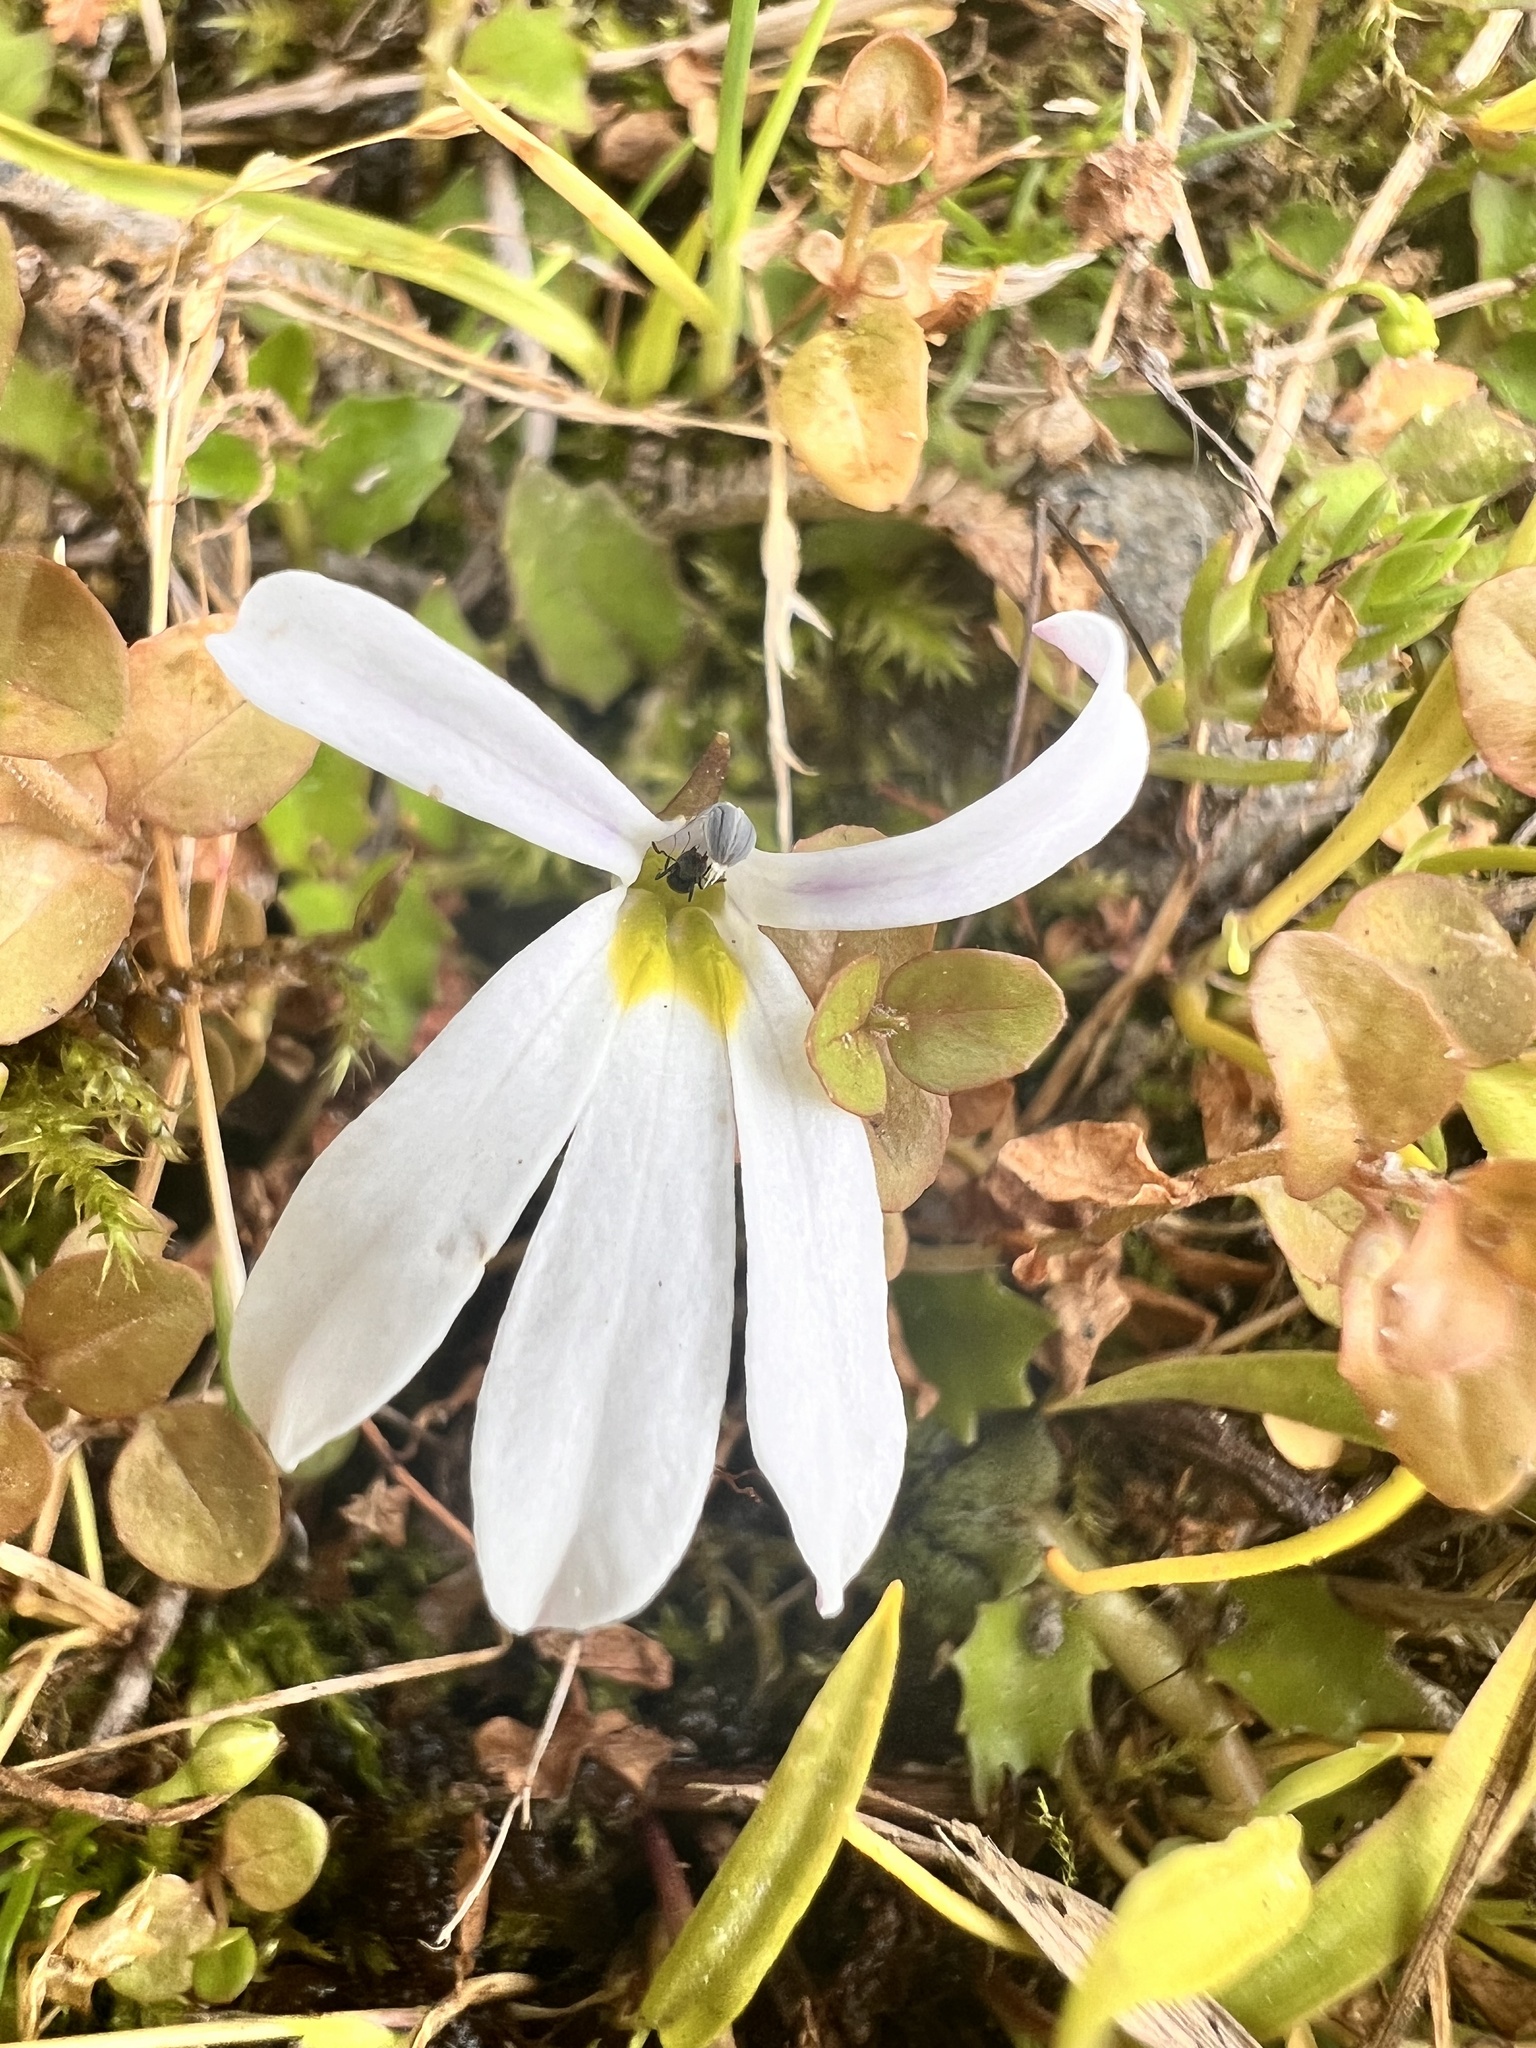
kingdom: Plantae
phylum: Tracheophyta
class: Magnoliopsida
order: Asterales
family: Campanulaceae
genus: Lobelia
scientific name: Lobelia angulata
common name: Lawn lobelia
